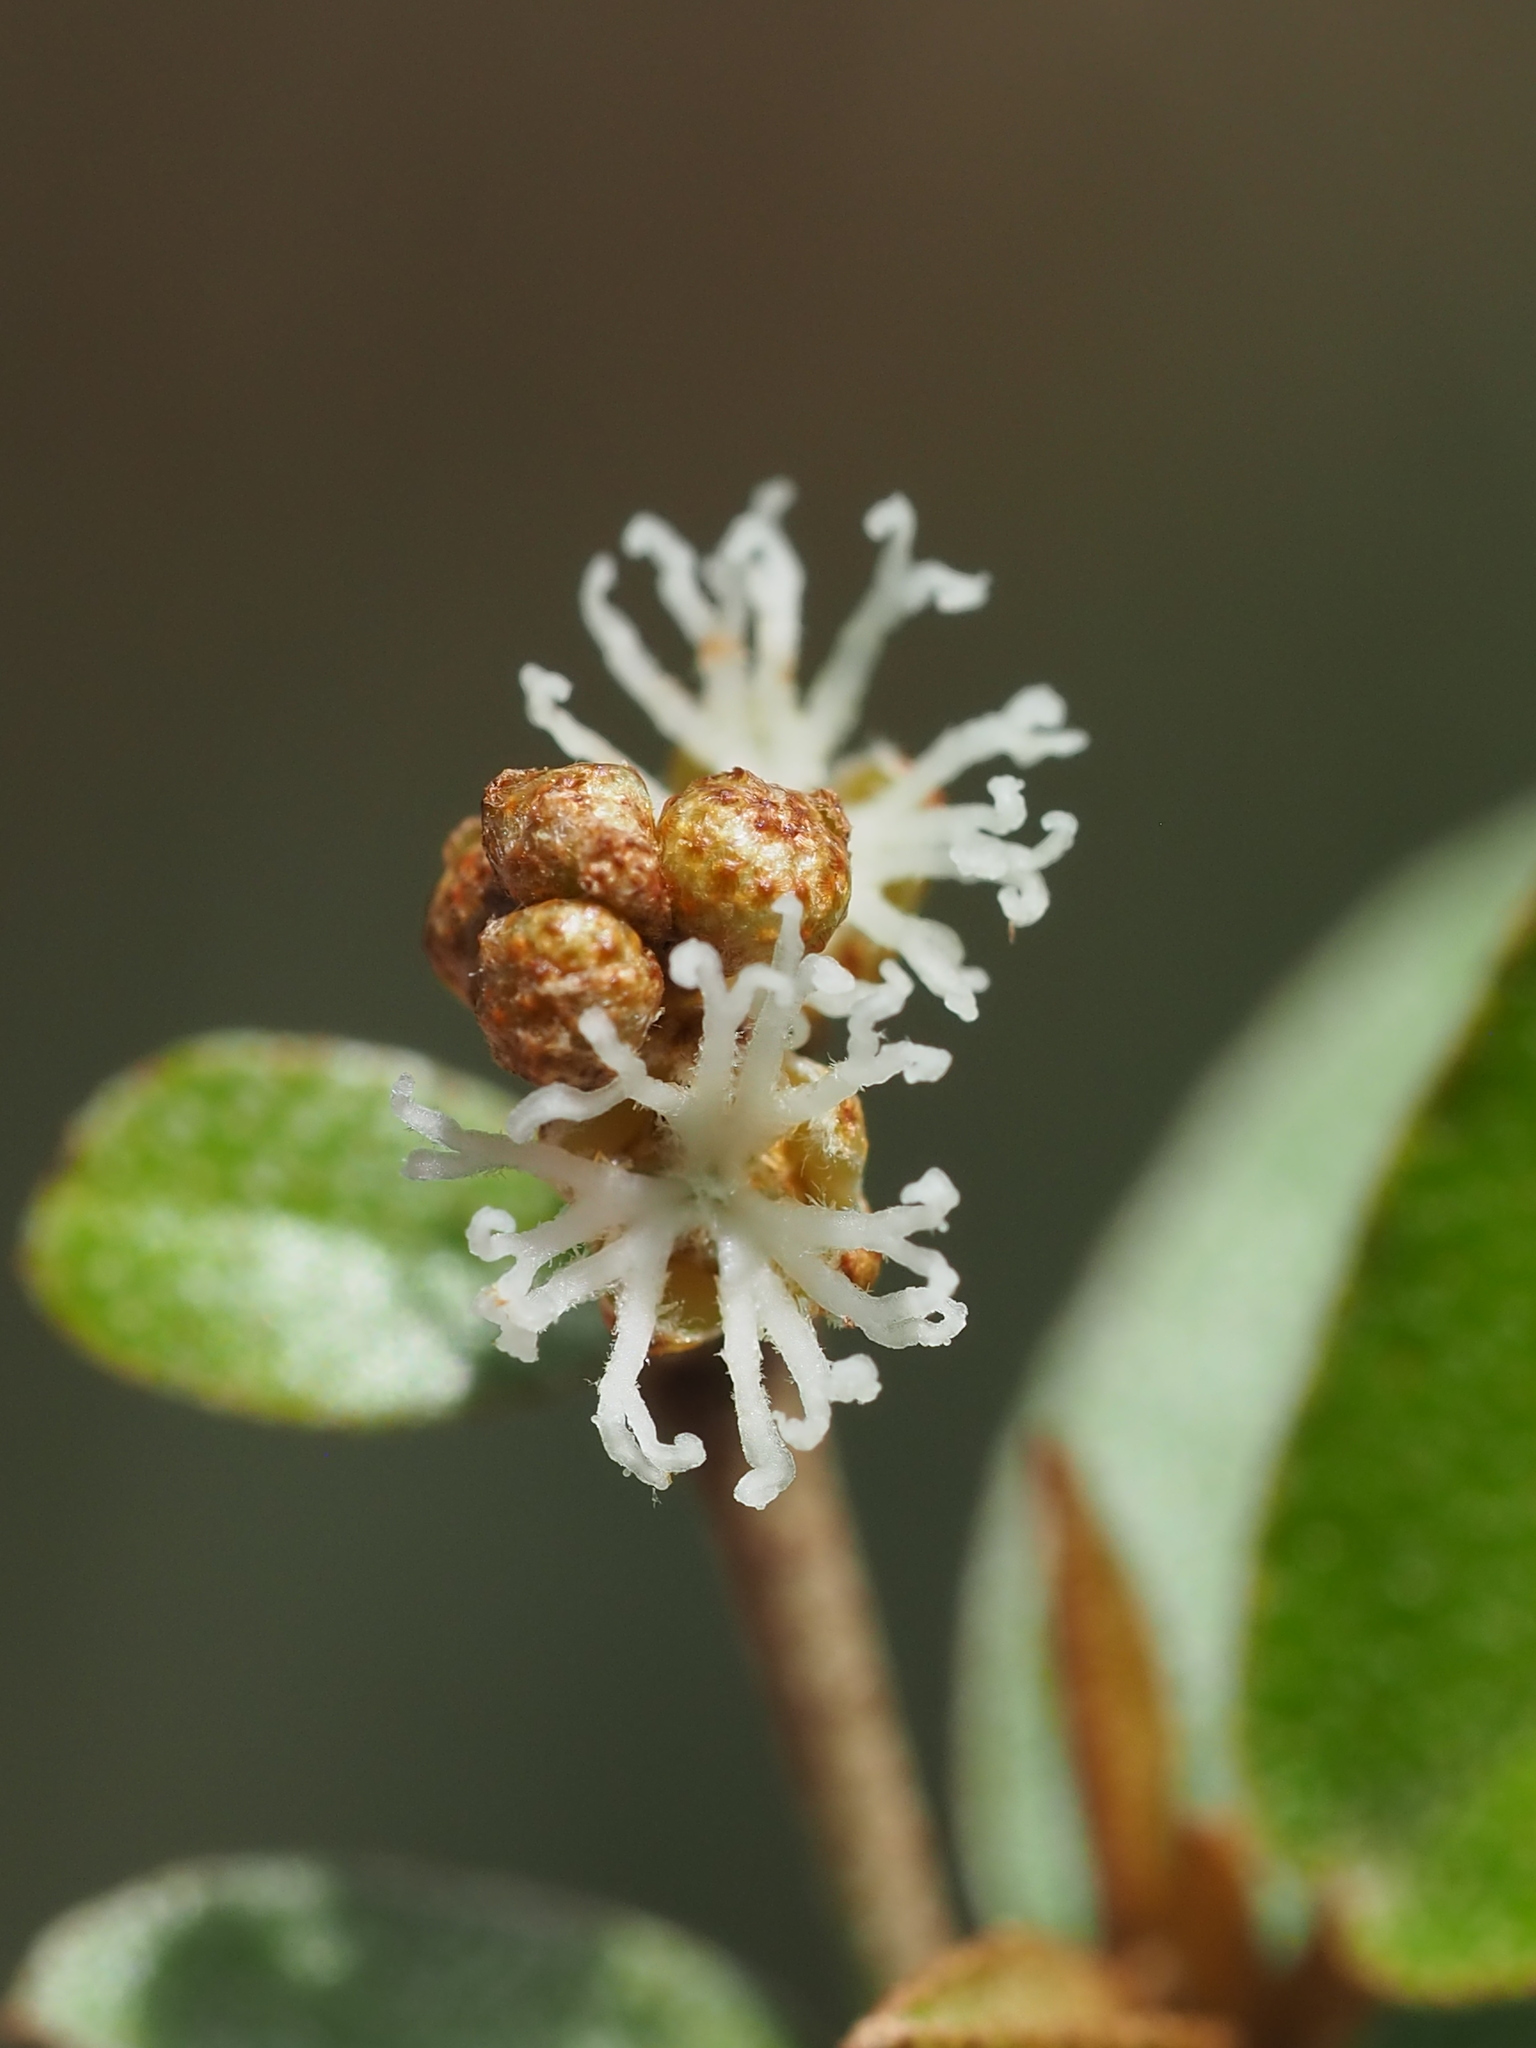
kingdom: Plantae
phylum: Tracheophyta
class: Magnoliopsida
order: Malpighiales
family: Euphorbiaceae
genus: Croton
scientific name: Croton cascarilloides
